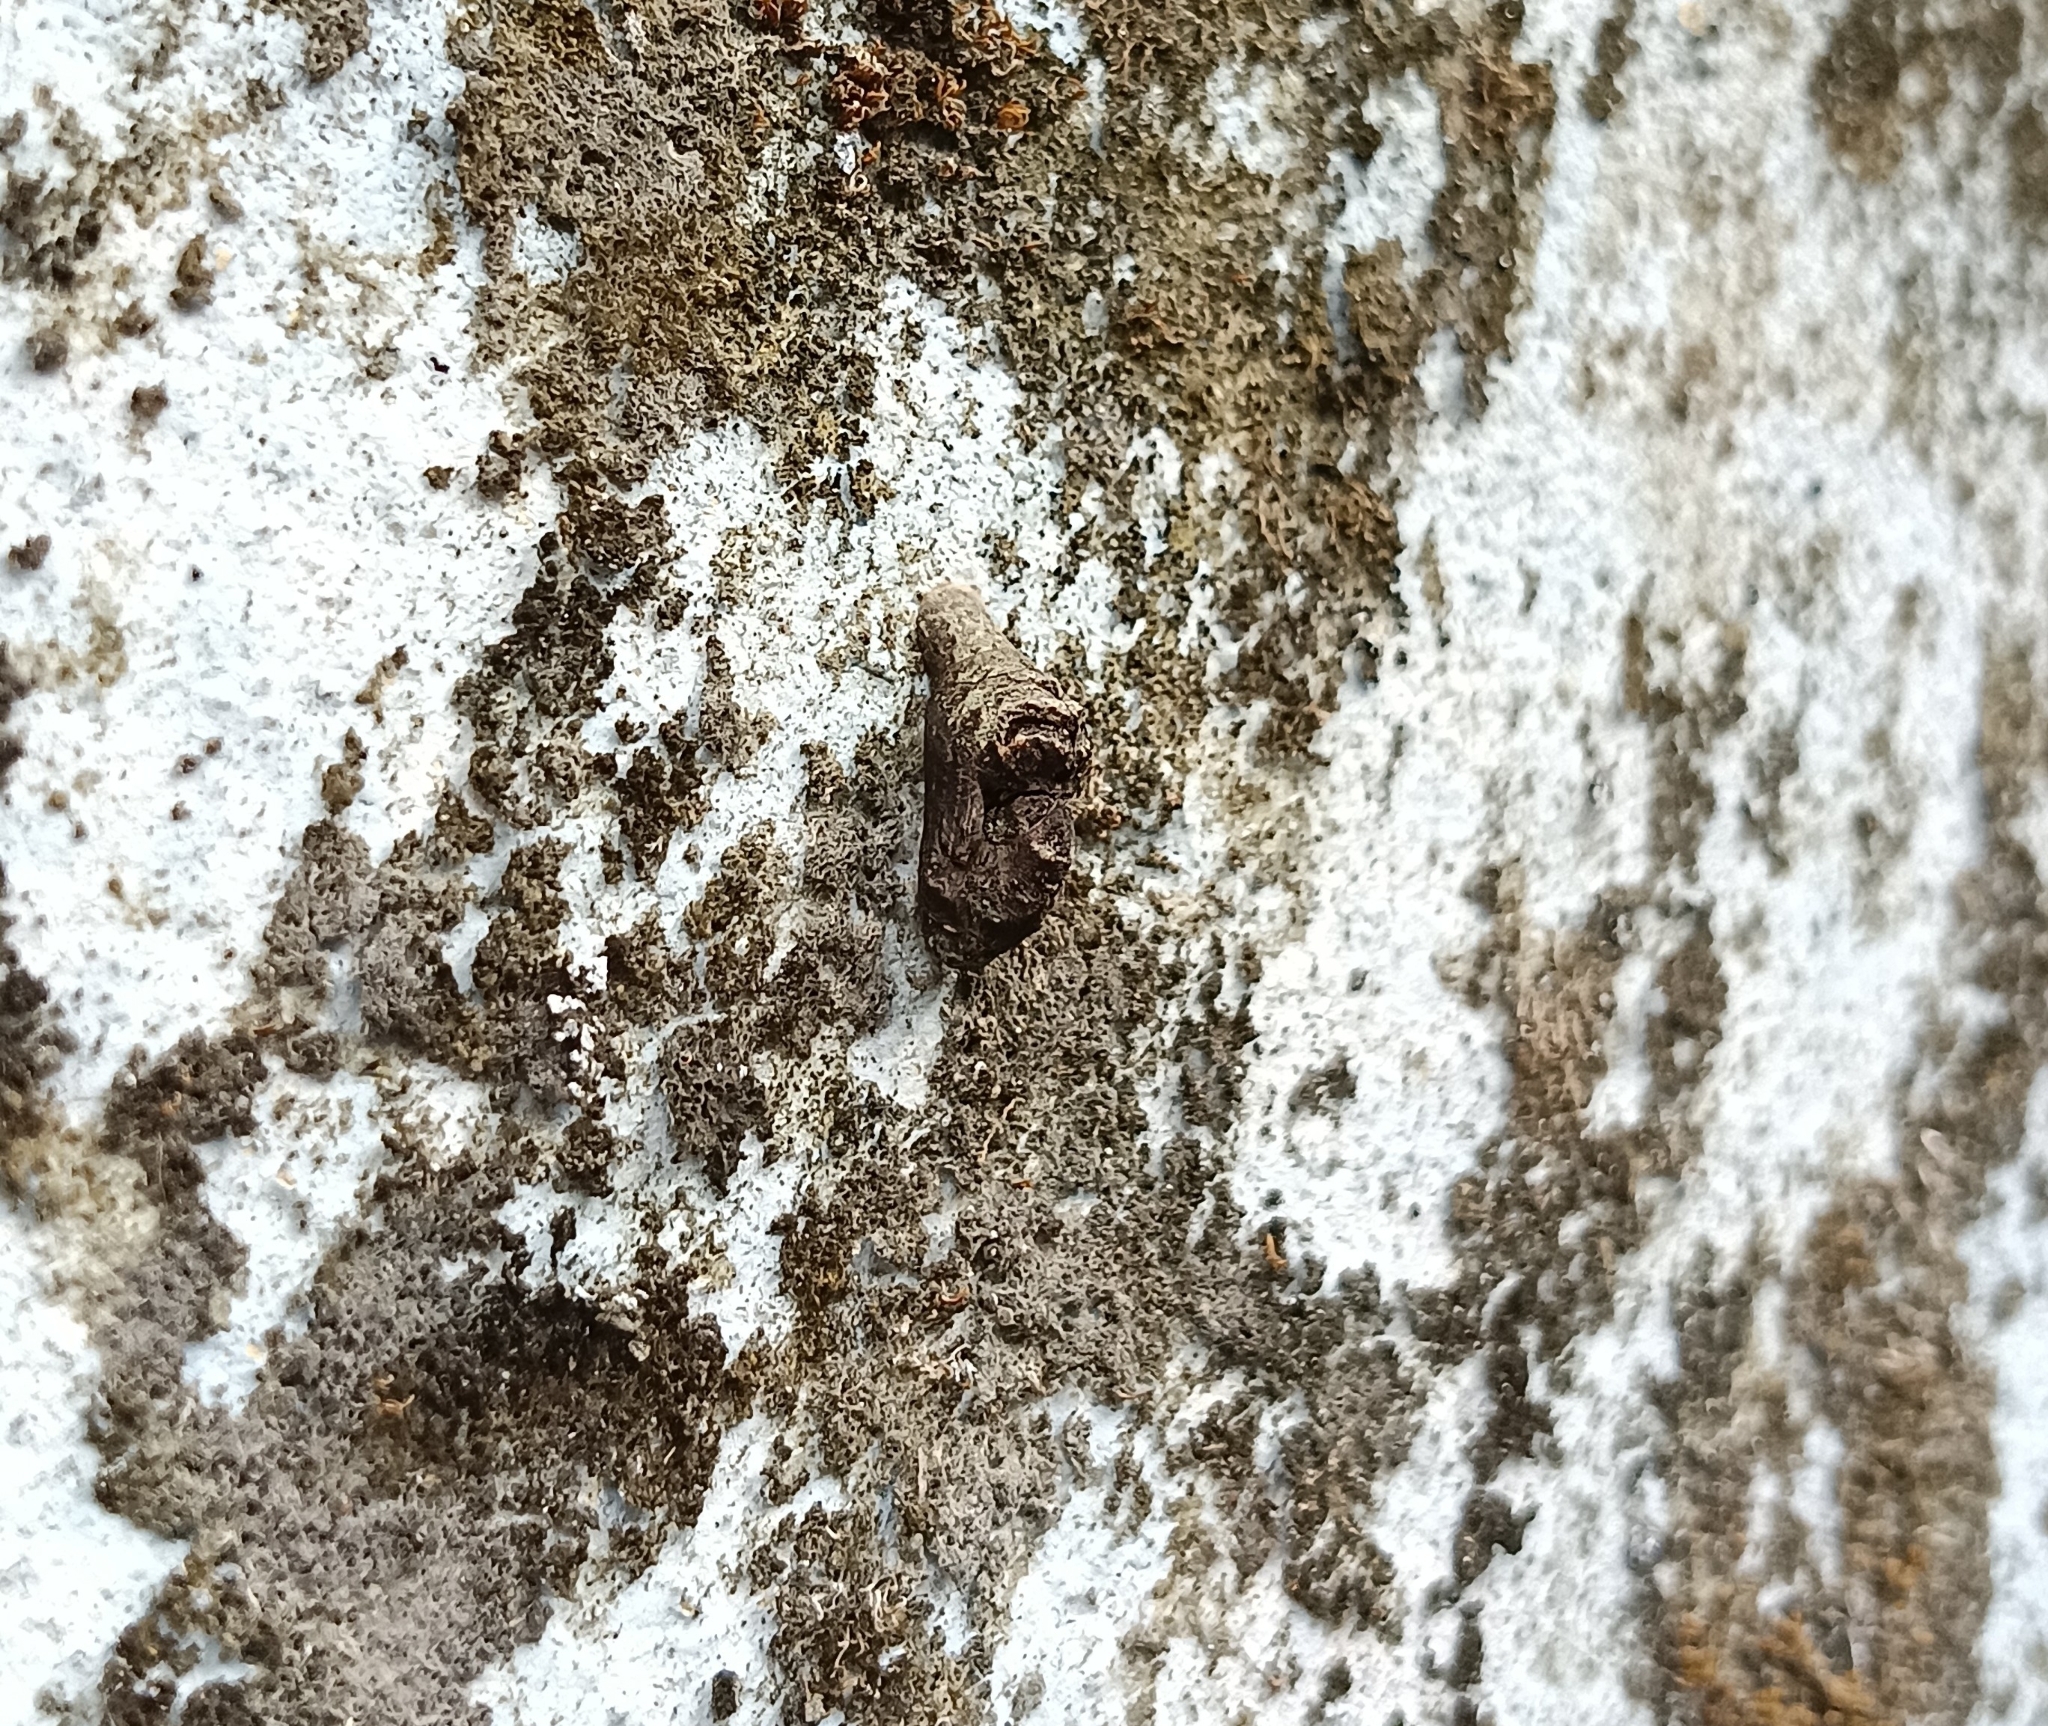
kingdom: Animalia
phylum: Arthropoda
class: Insecta
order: Lepidoptera
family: Lycaenidae
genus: Tajuria
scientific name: Tajuria cippus
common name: Peacock royal
